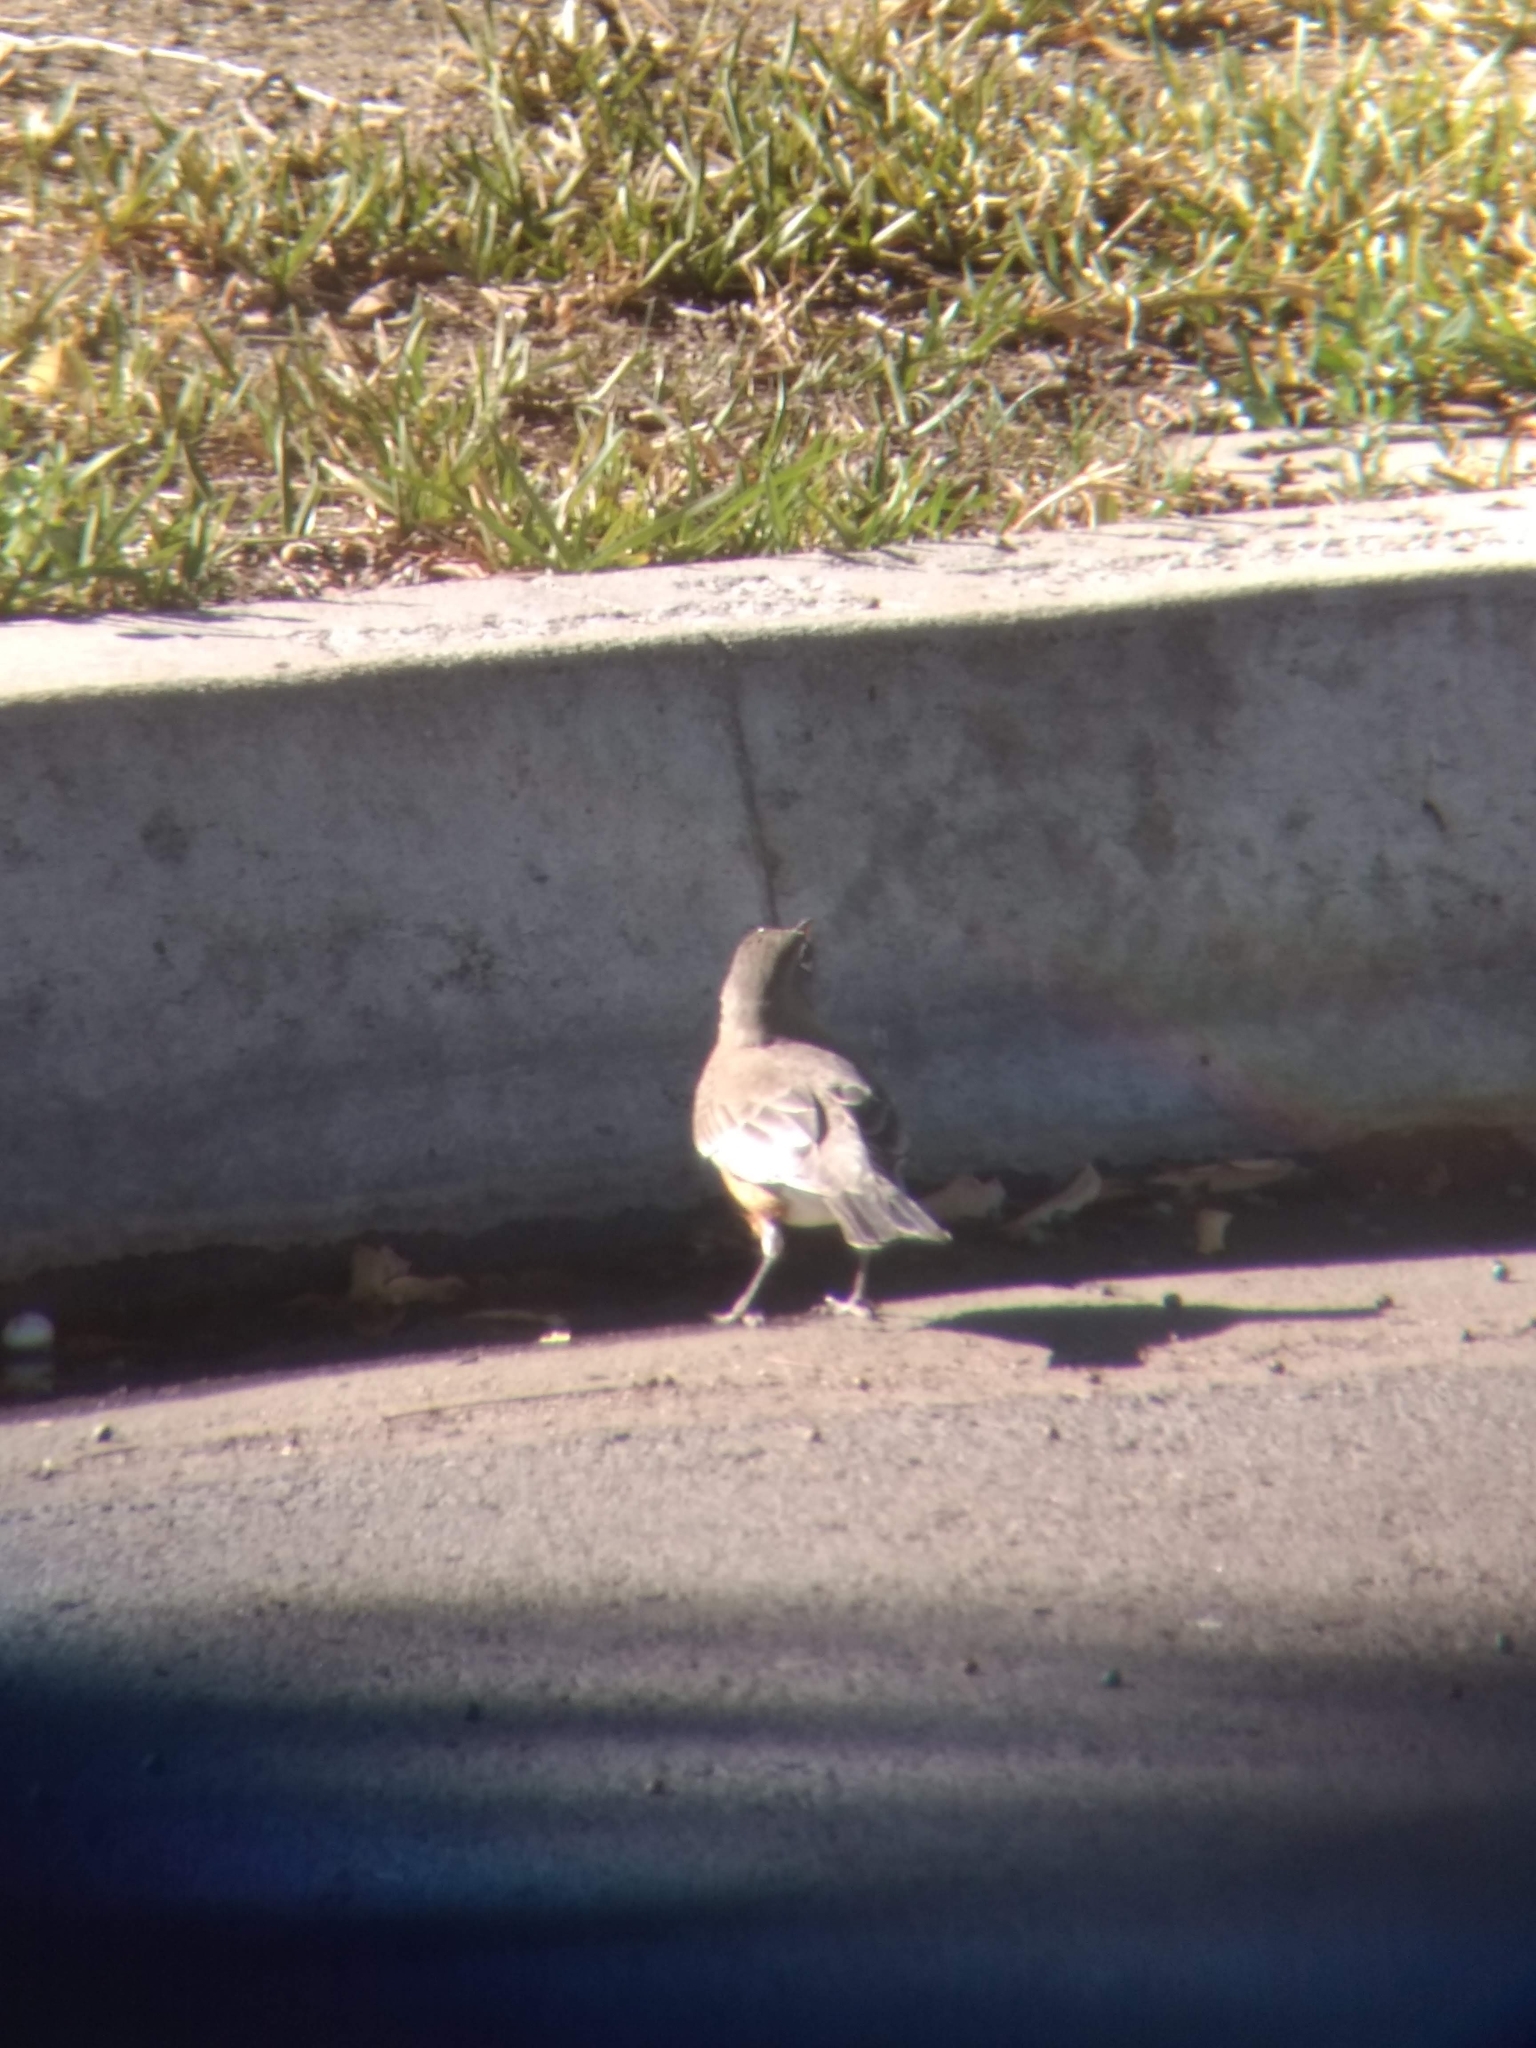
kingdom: Animalia
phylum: Chordata
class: Aves
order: Passeriformes
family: Turdidae
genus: Turdus
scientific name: Turdus migratorius
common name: American robin
